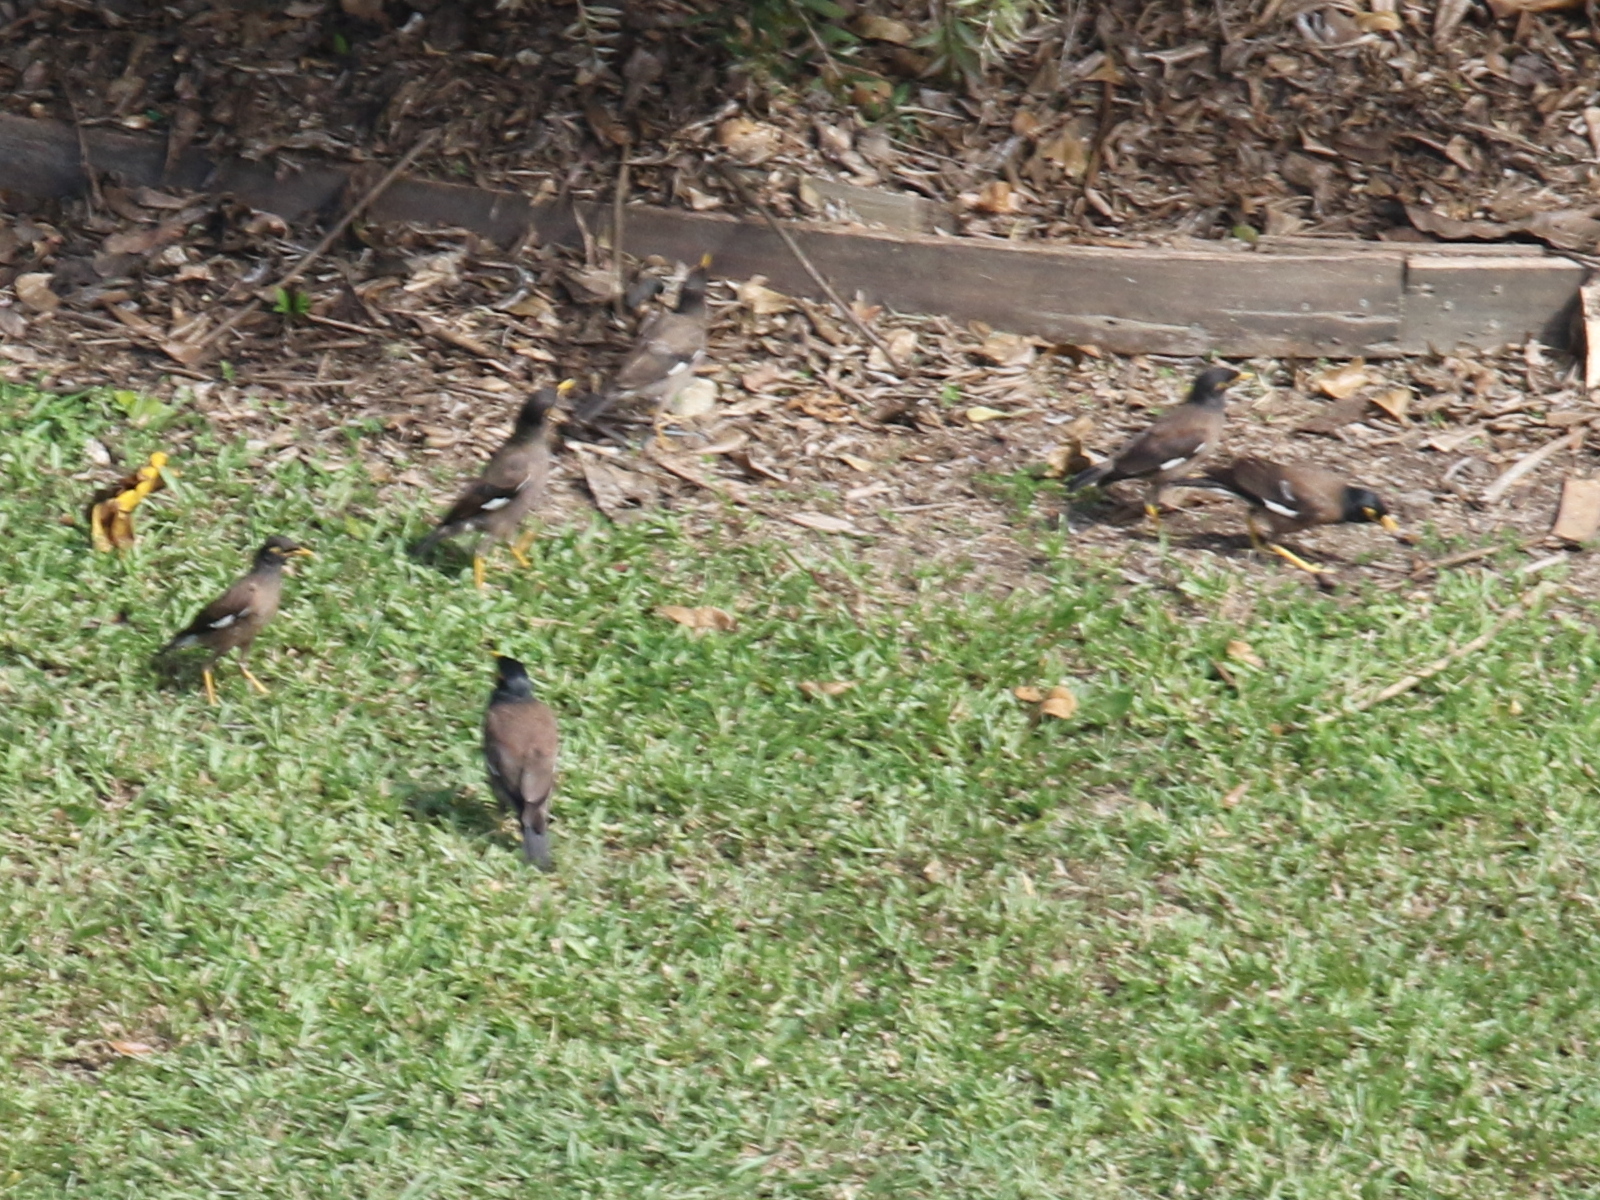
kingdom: Animalia
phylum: Chordata
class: Aves
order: Passeriformes
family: Sturnidae
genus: Acridotheres
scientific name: Acridotheres tristis
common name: Common myna
